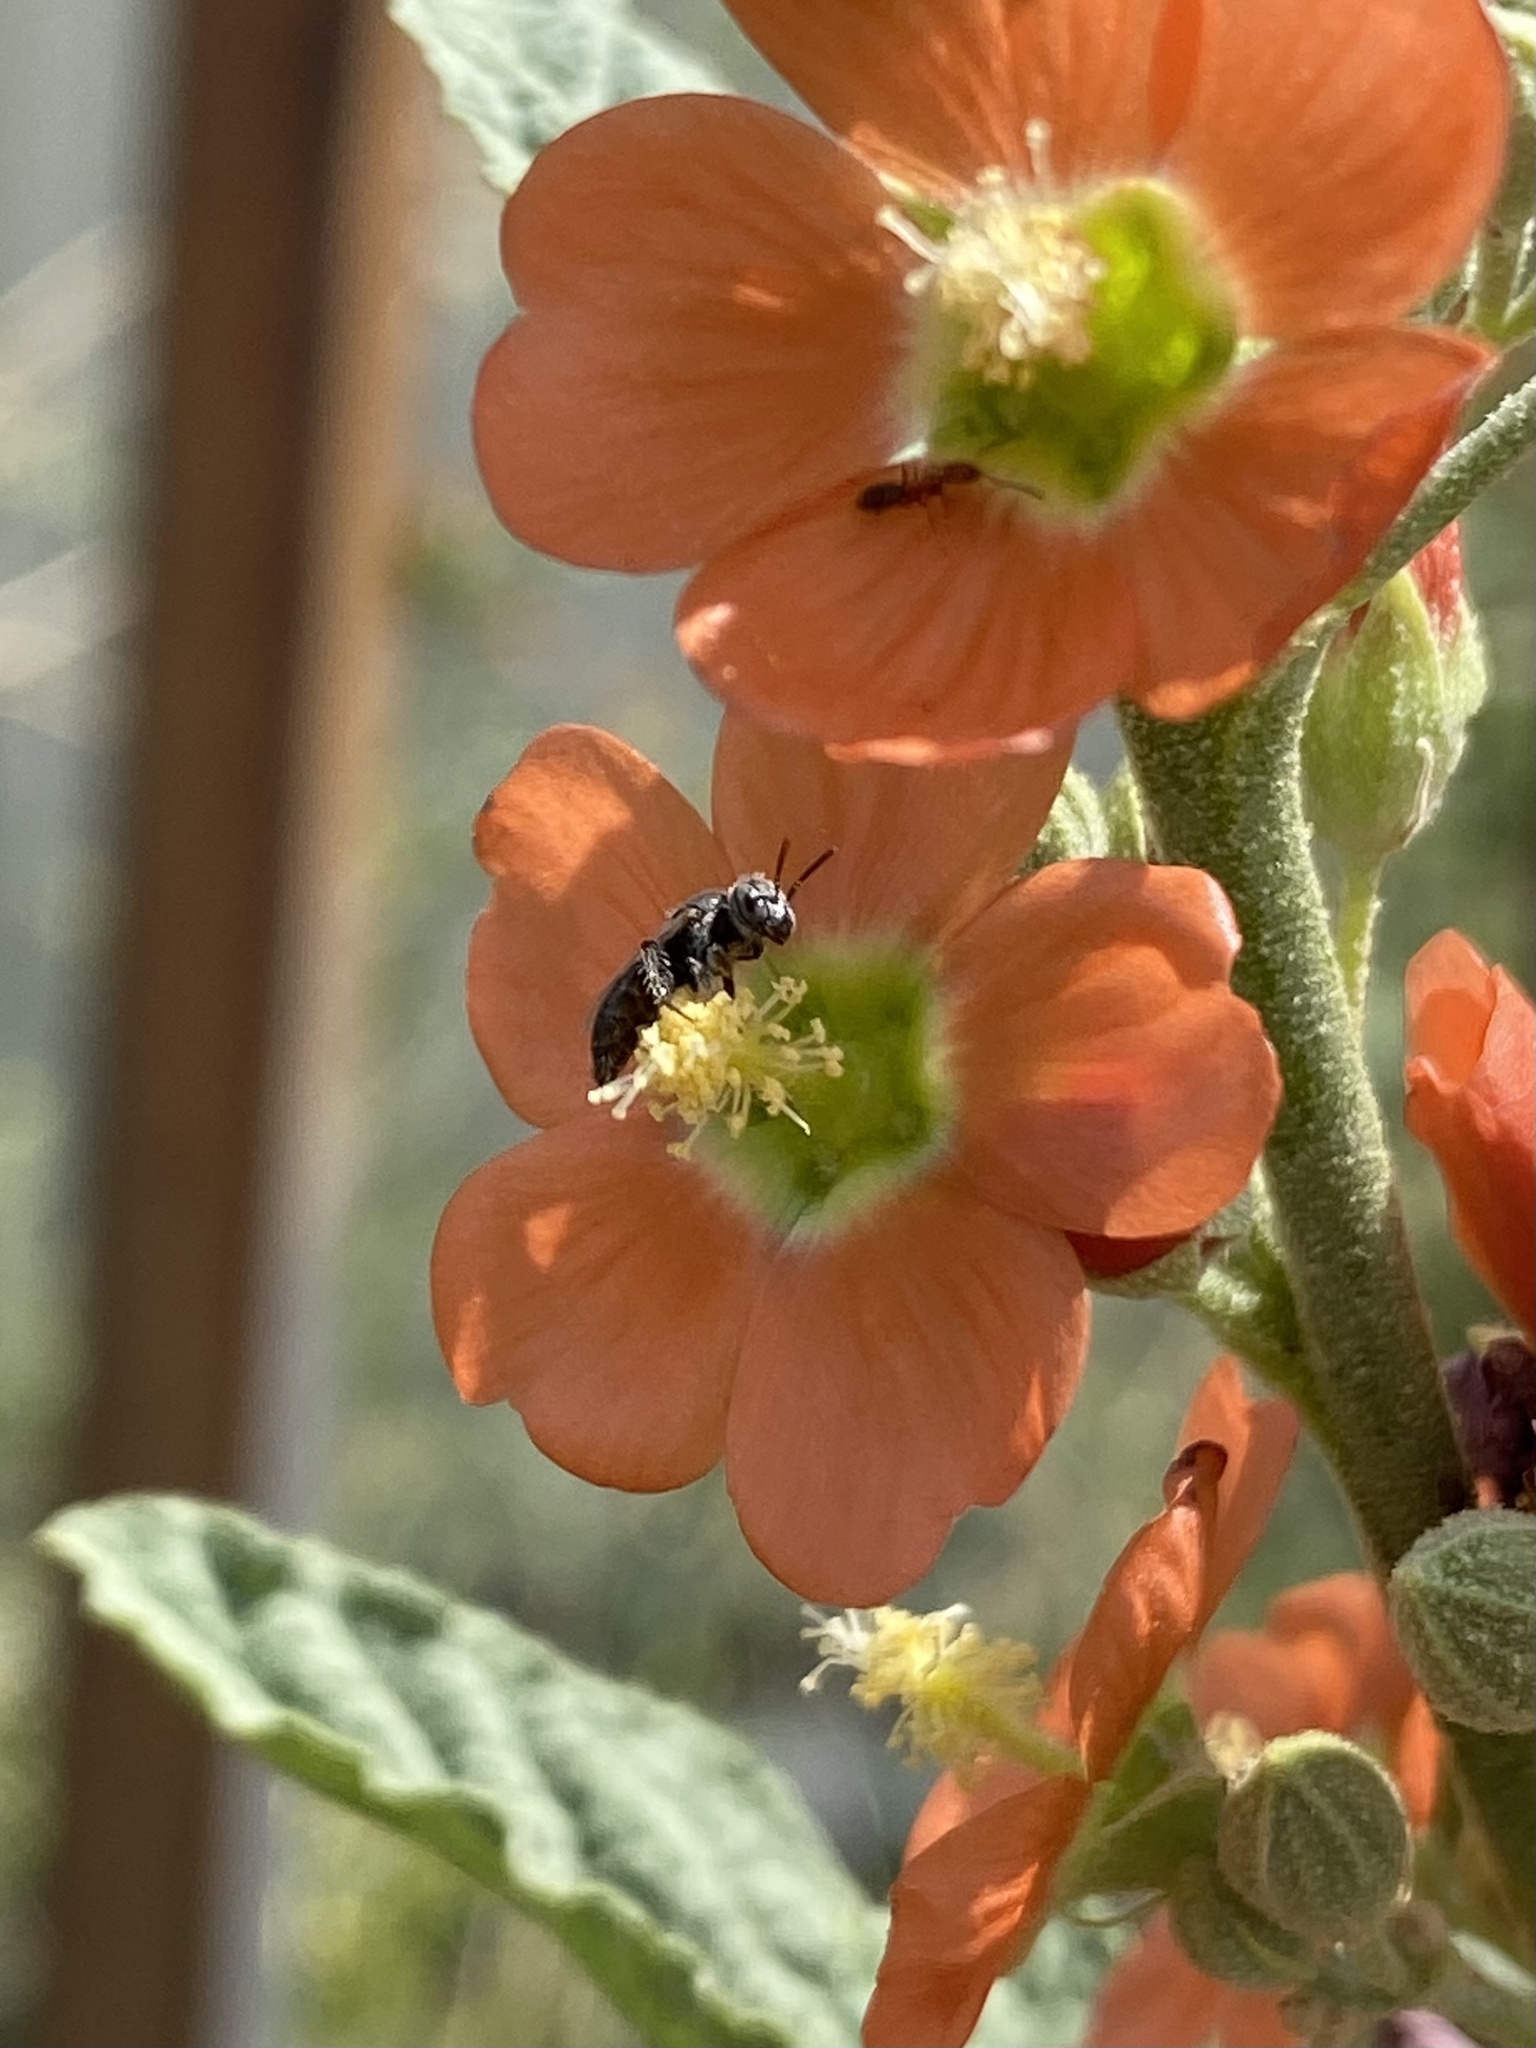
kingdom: Animalia
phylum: Arthropoda
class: Insecta
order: Hymenoptera
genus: Macroteropsis
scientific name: Macroteropsis
